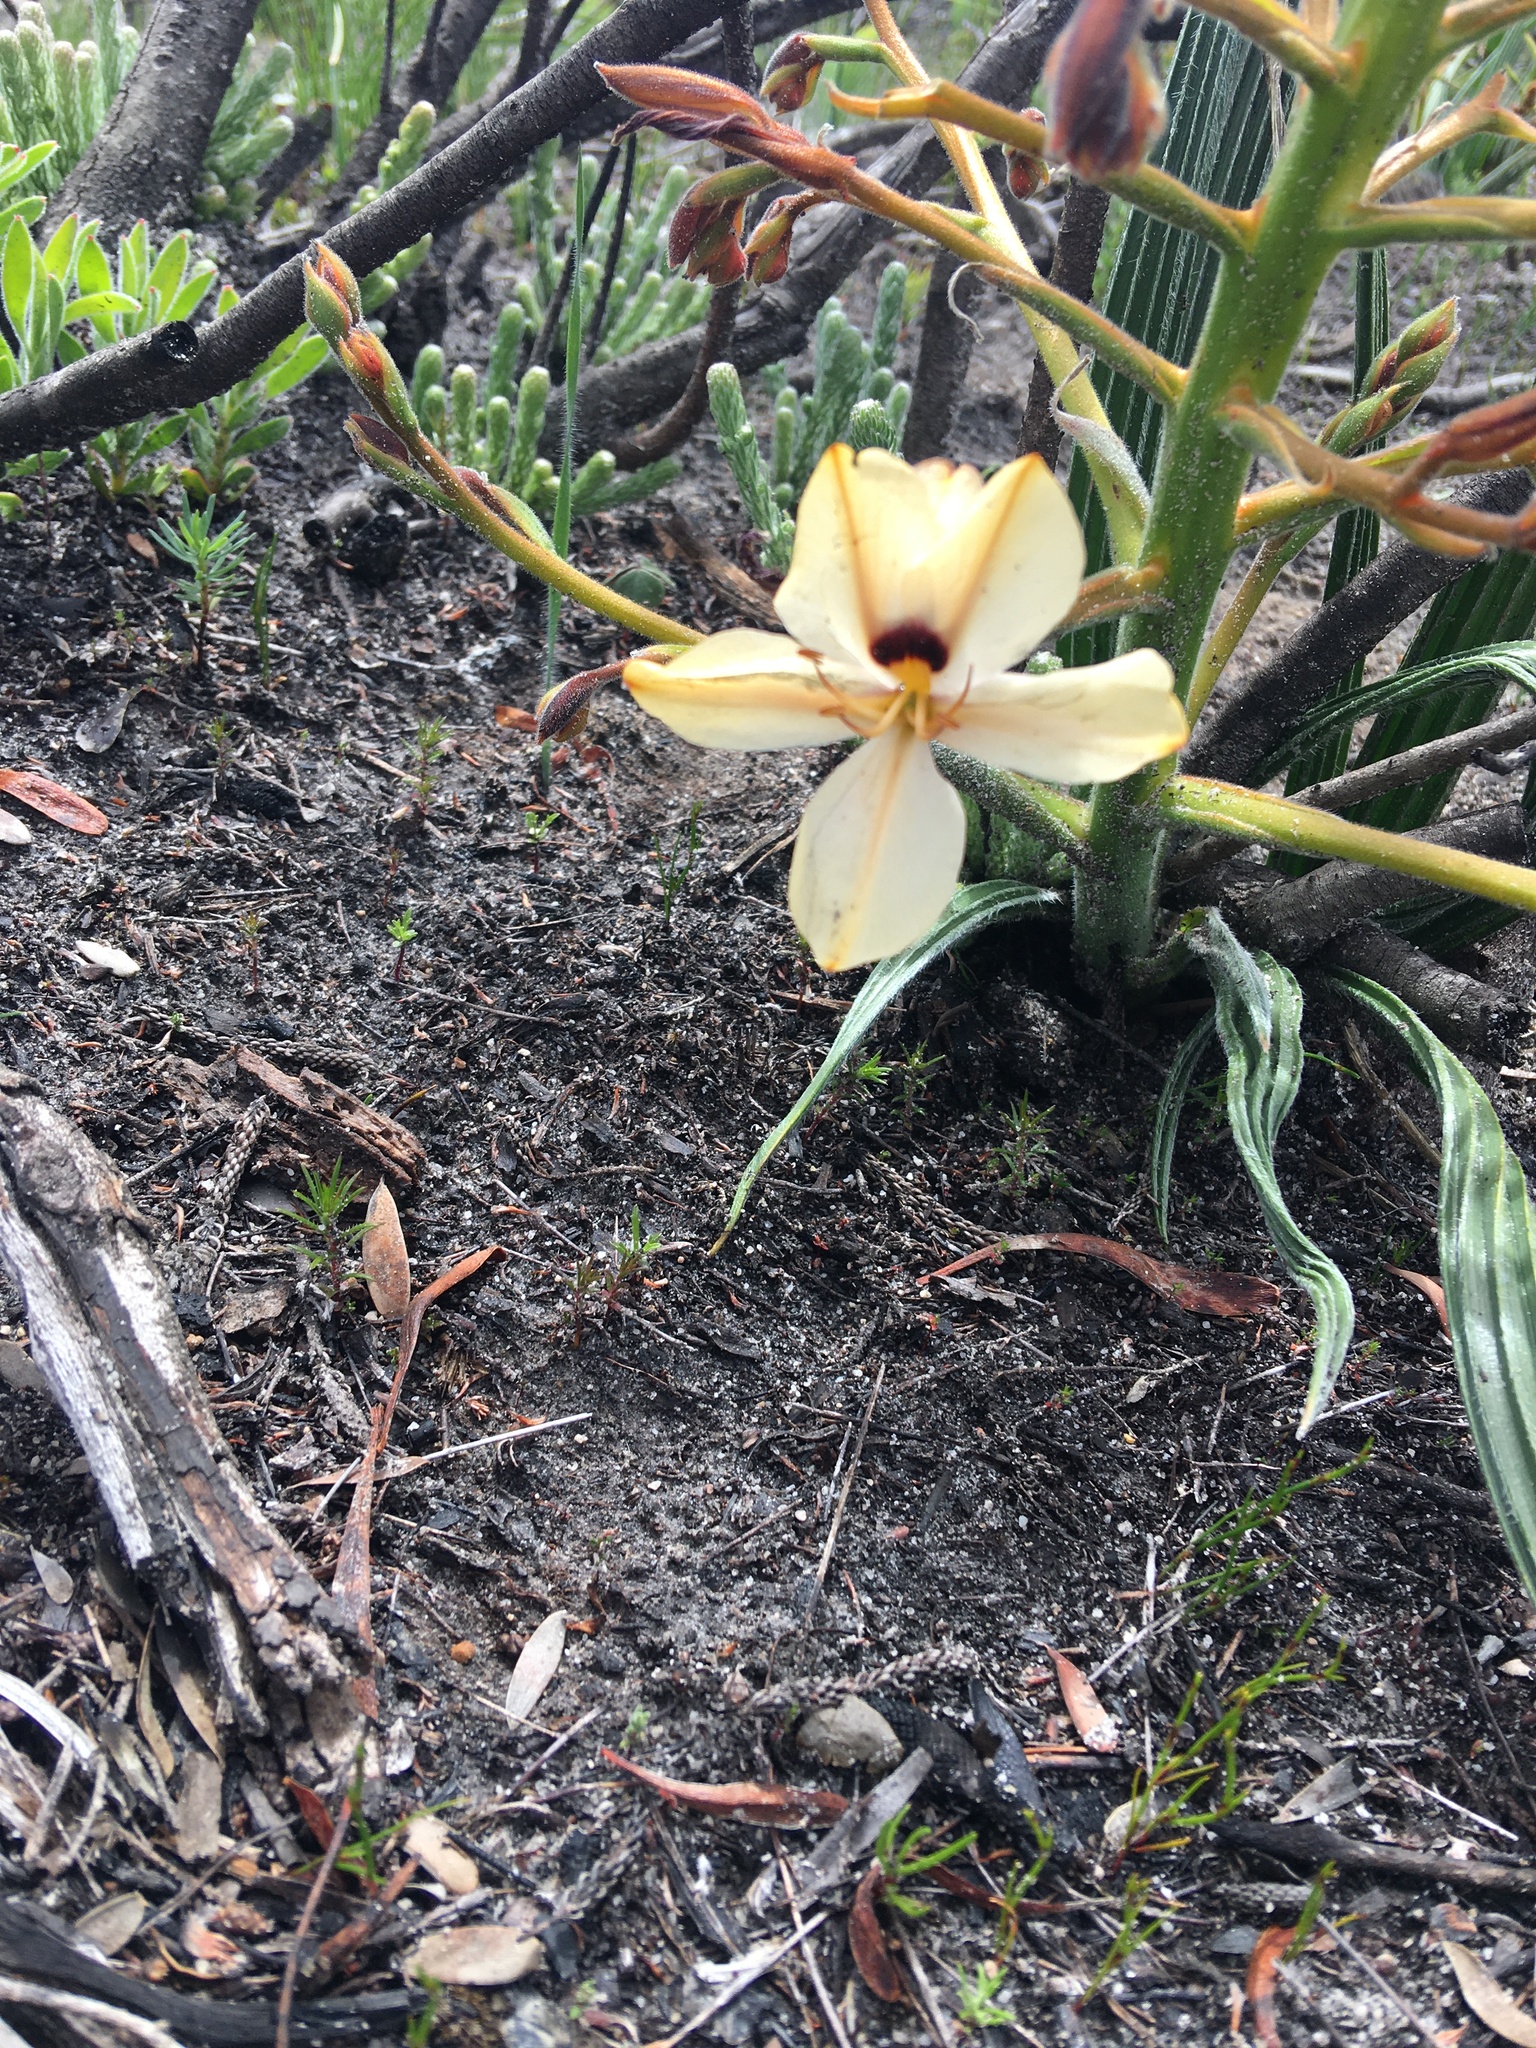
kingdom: Plantae
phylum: Tracheophyta
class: Liliopsida
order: Commelinales
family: Haemodoraceae
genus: Wachendorfia
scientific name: Wachendorfia paniculata
